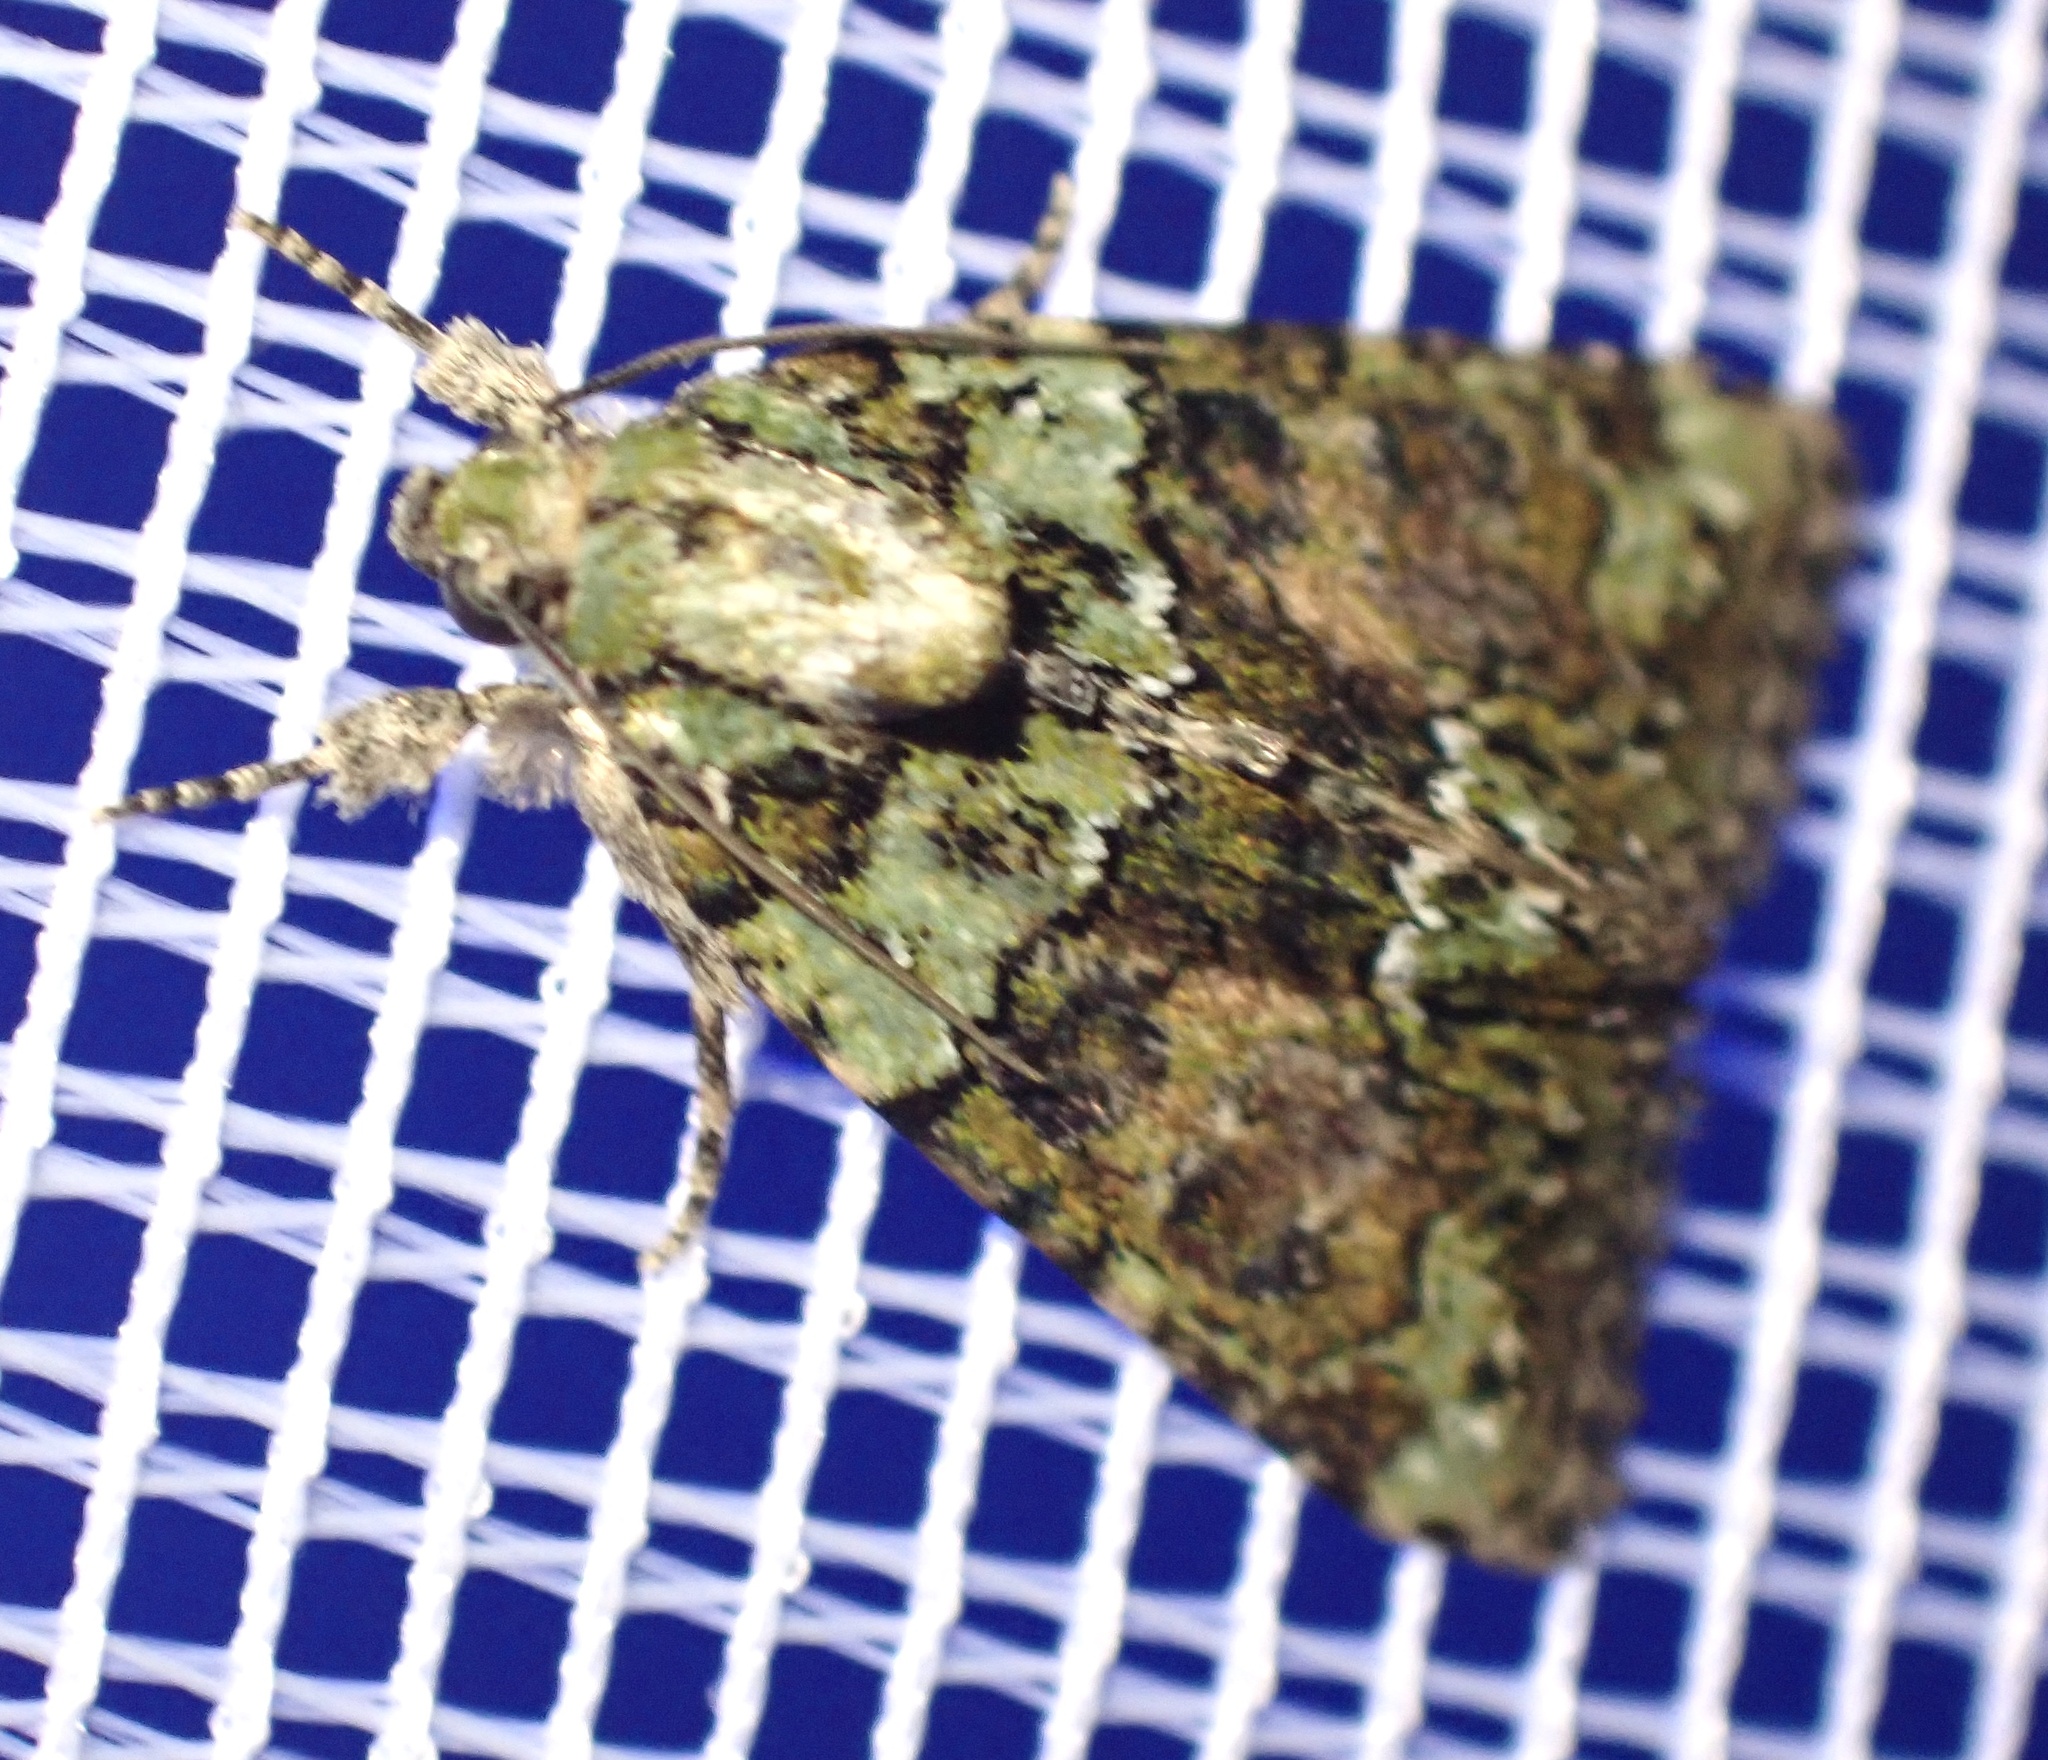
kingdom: Animalia
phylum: Arthropoda
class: Insecta
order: Lepidoptera
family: Noctuidae
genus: Cryphia
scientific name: Cryphia algae
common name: Tree-lichen beauty
